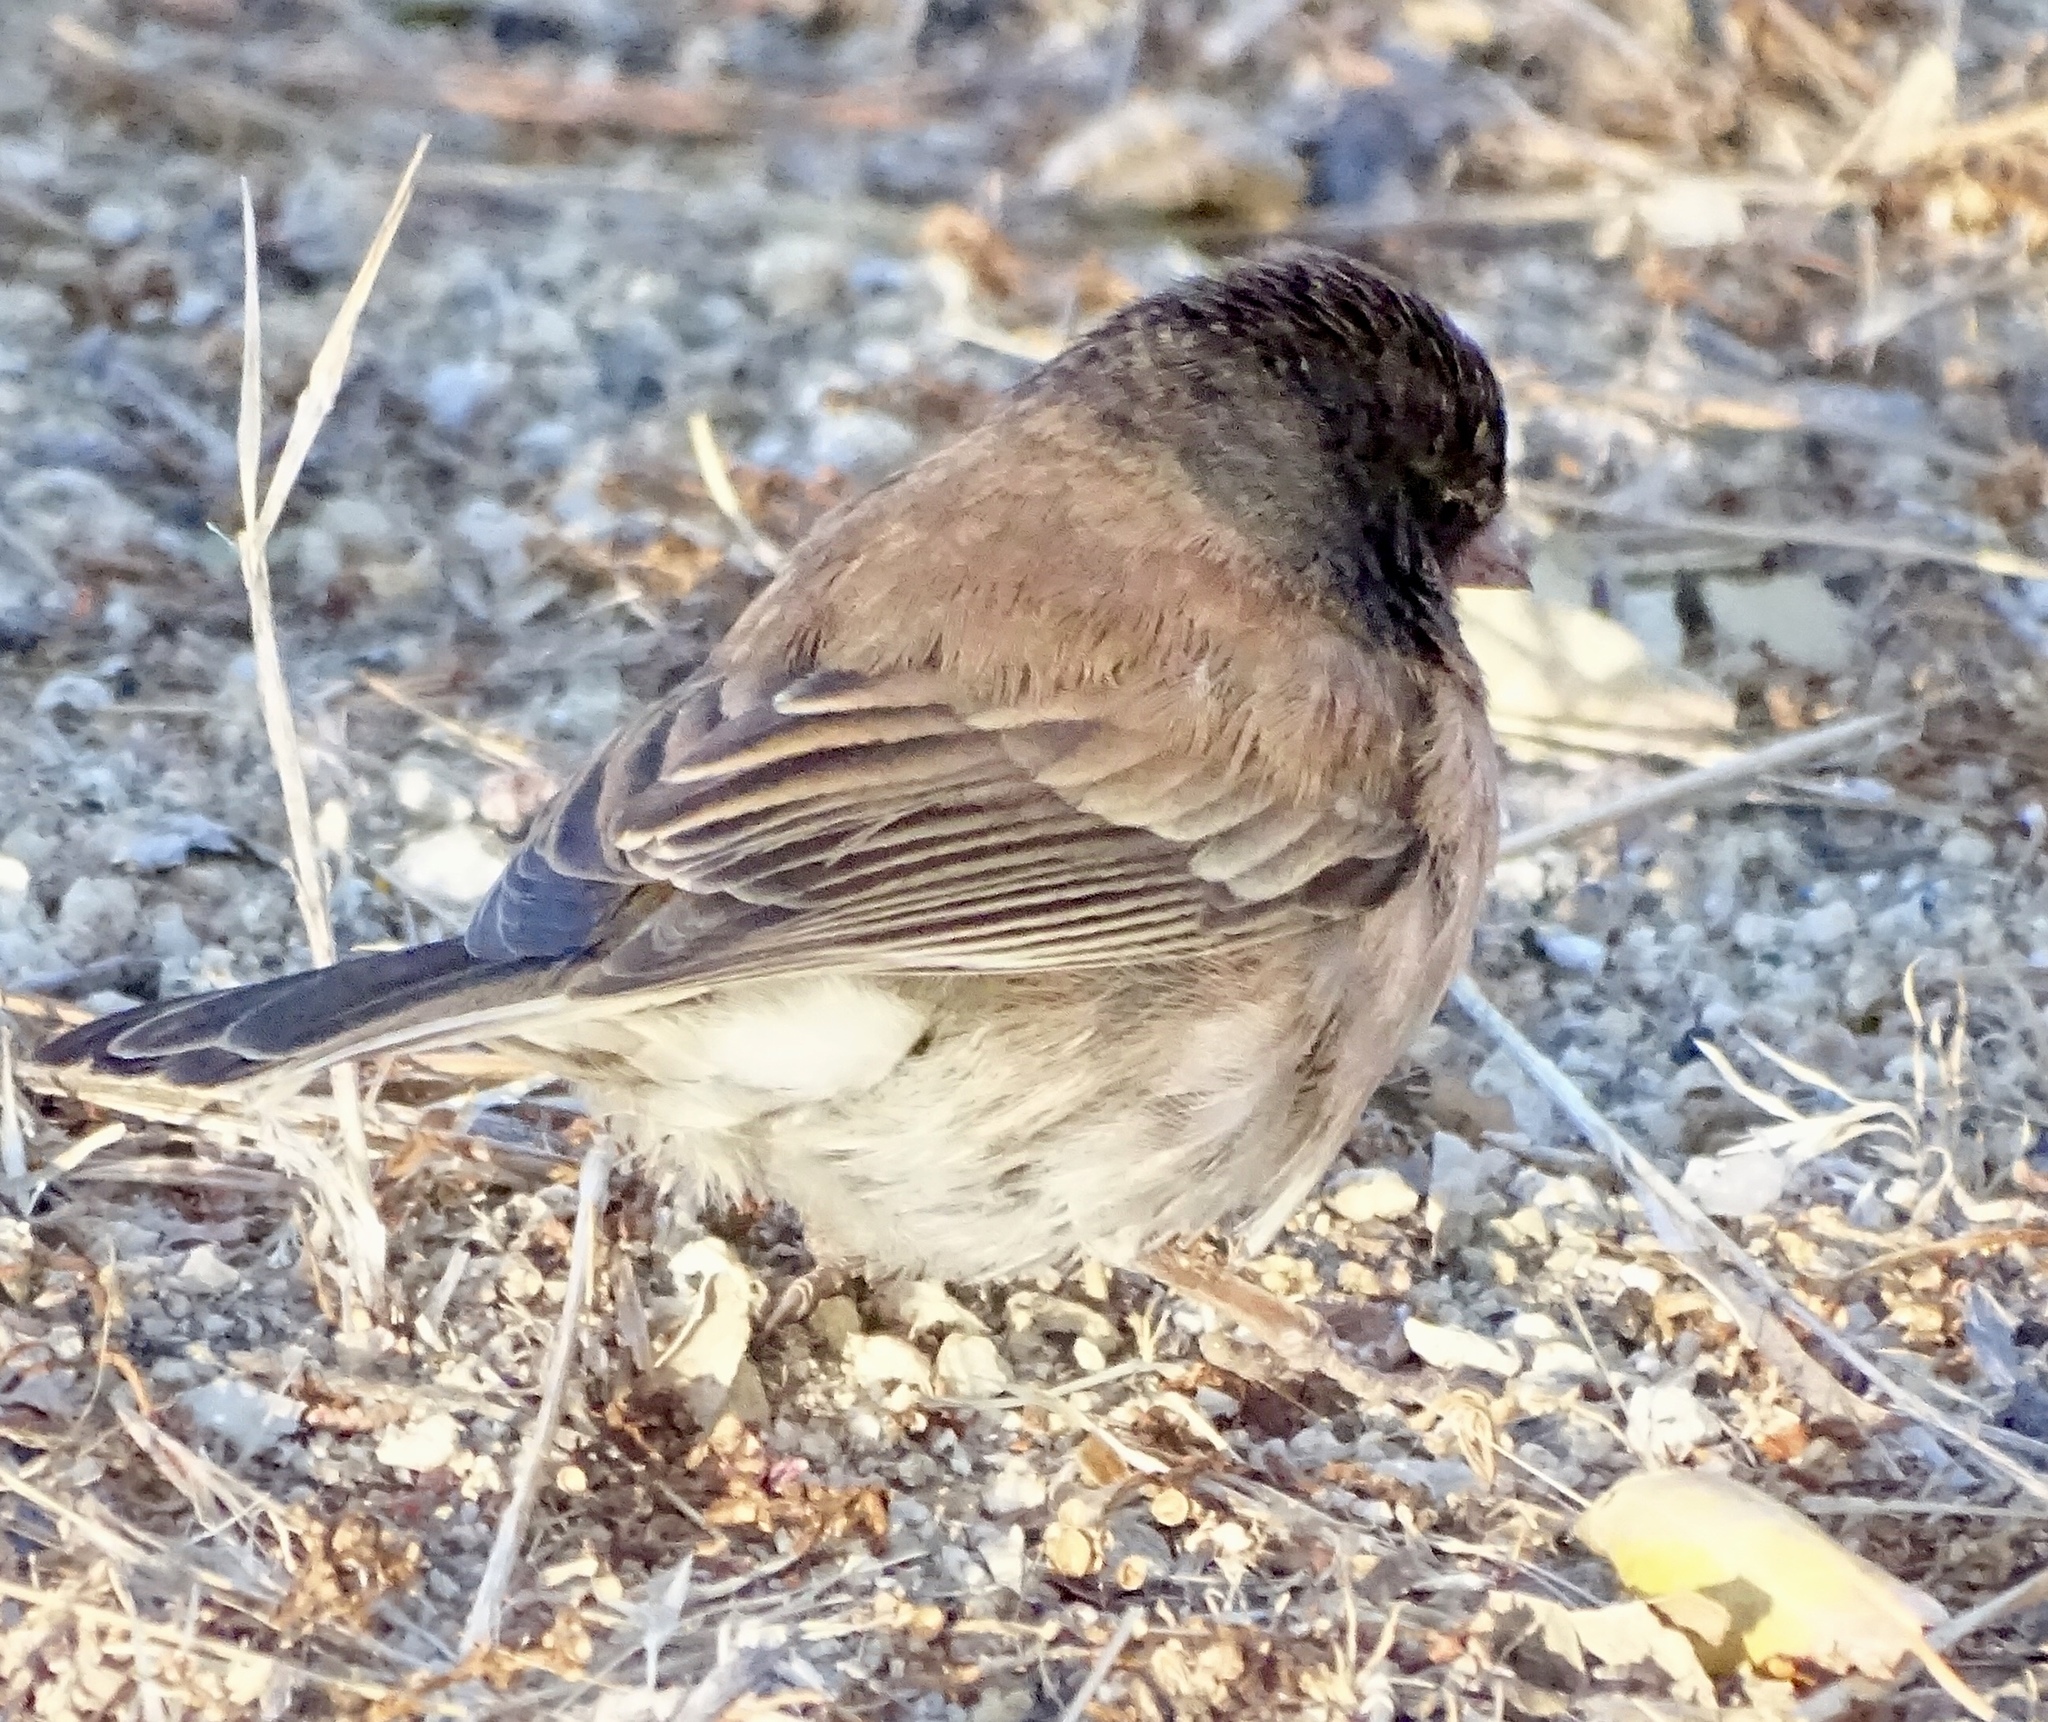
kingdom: Animalia
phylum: Chordata
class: Aves
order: Passeriformes
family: Passerellidae
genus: Junco
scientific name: Junco hyemalis
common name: Dark-eyed junco
